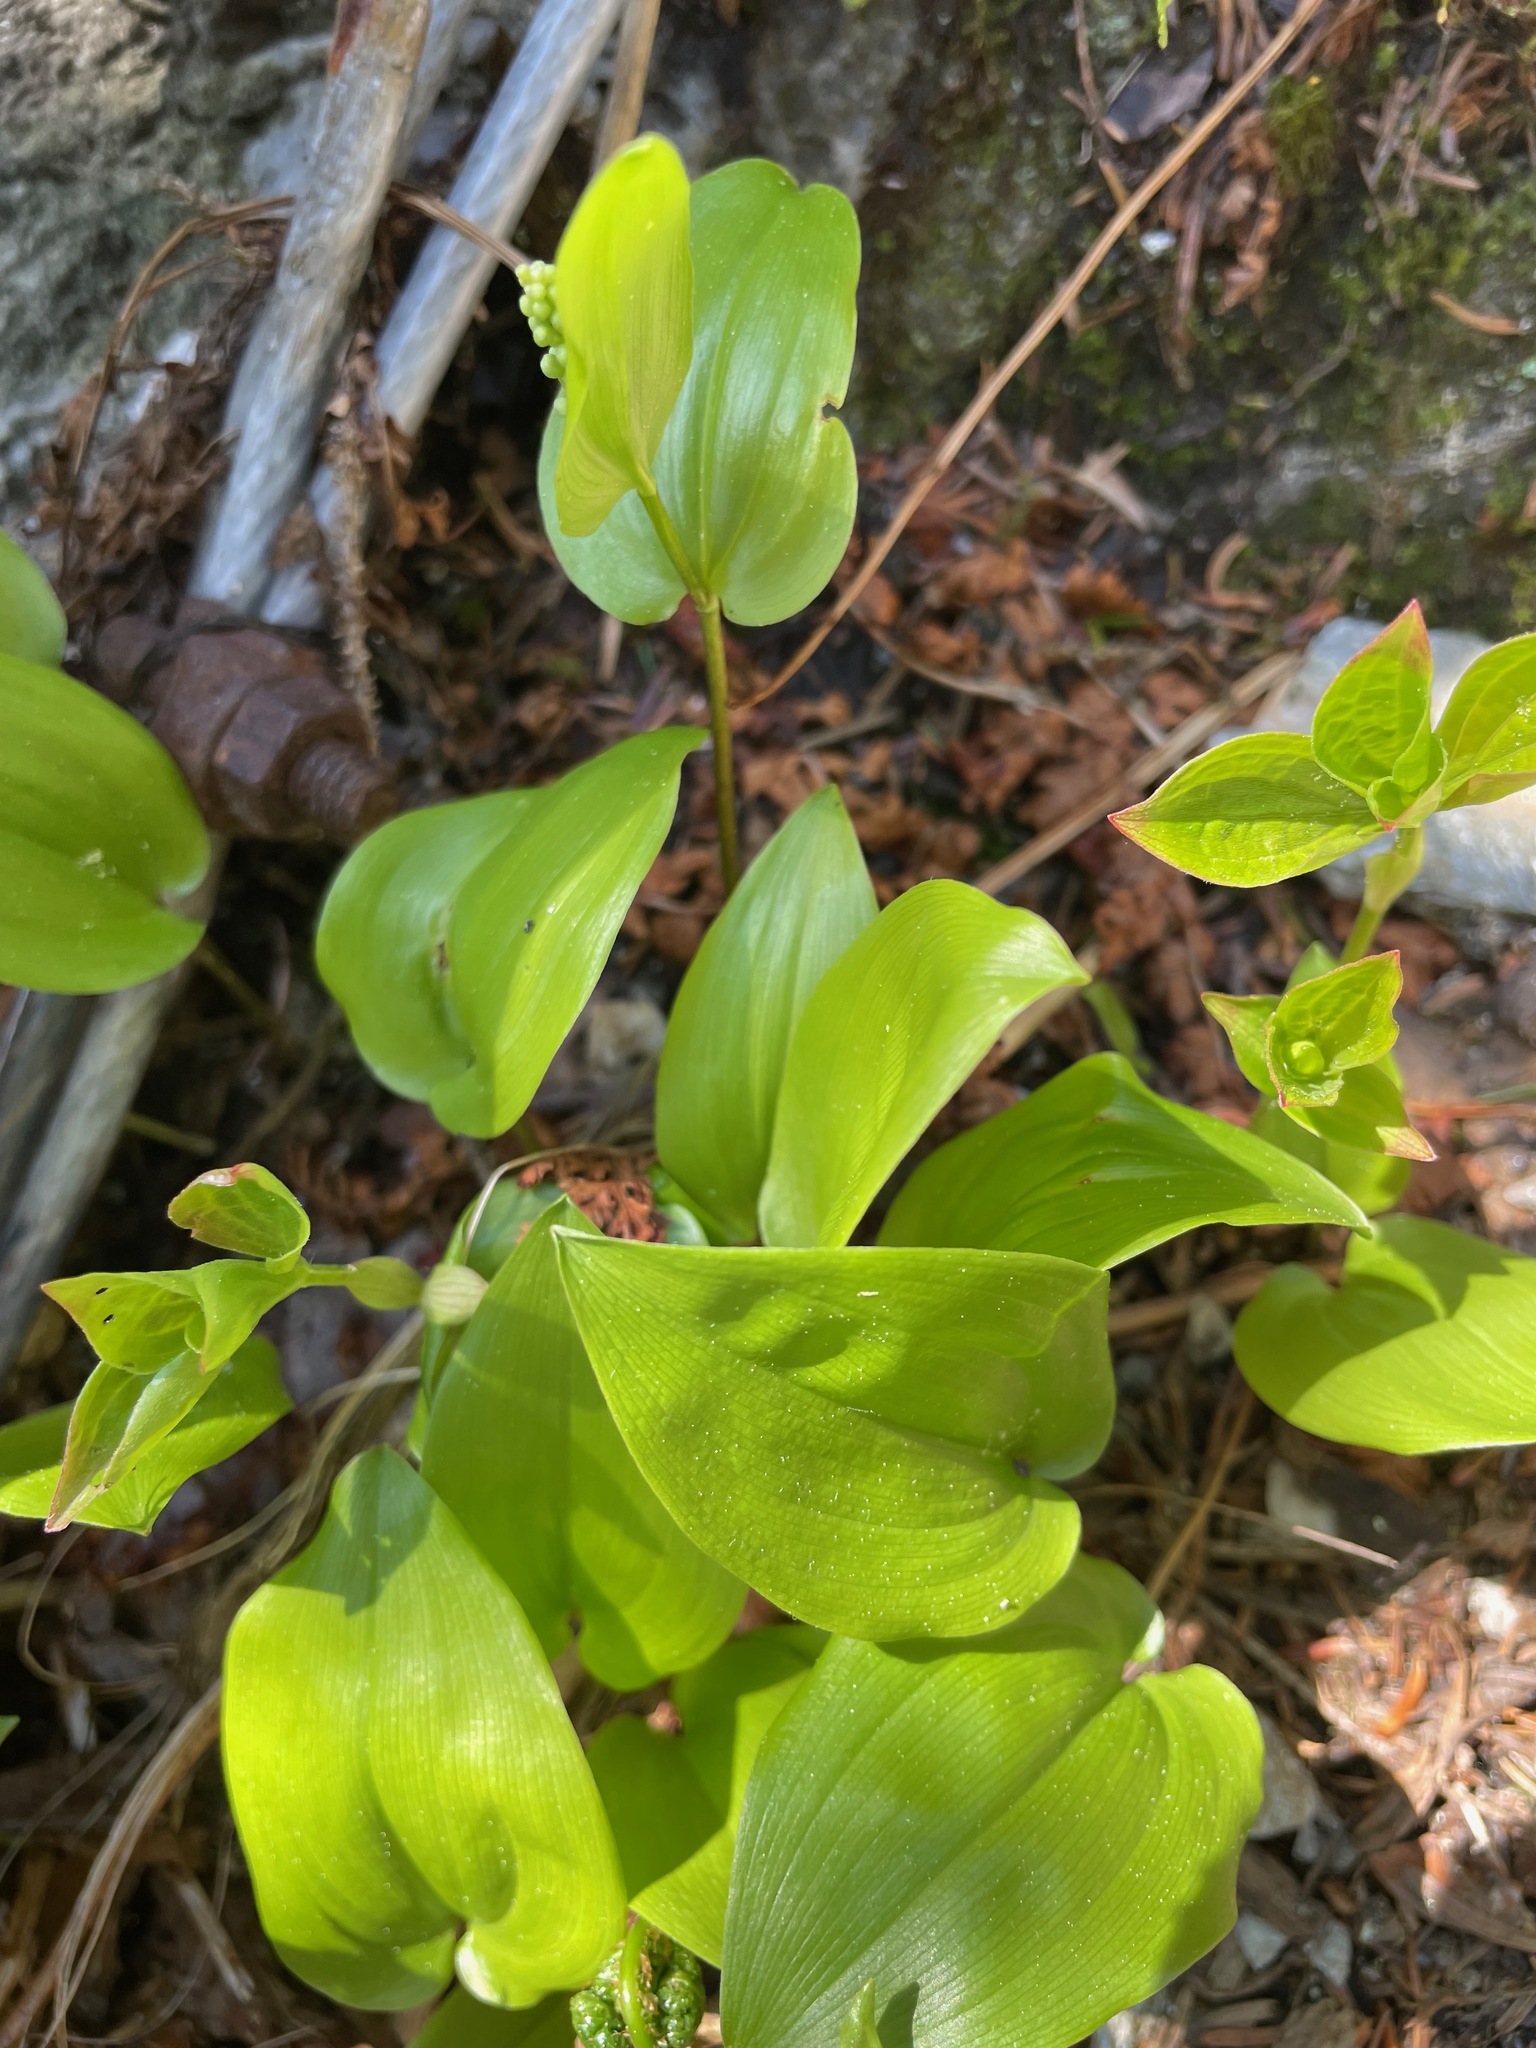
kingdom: Plantae
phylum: Tracheophyta
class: Liliopsida
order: Asparagales
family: Asparagaceae
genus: Maianthemum
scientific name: Maianthemum canadense
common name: False lily-of-the-valley
